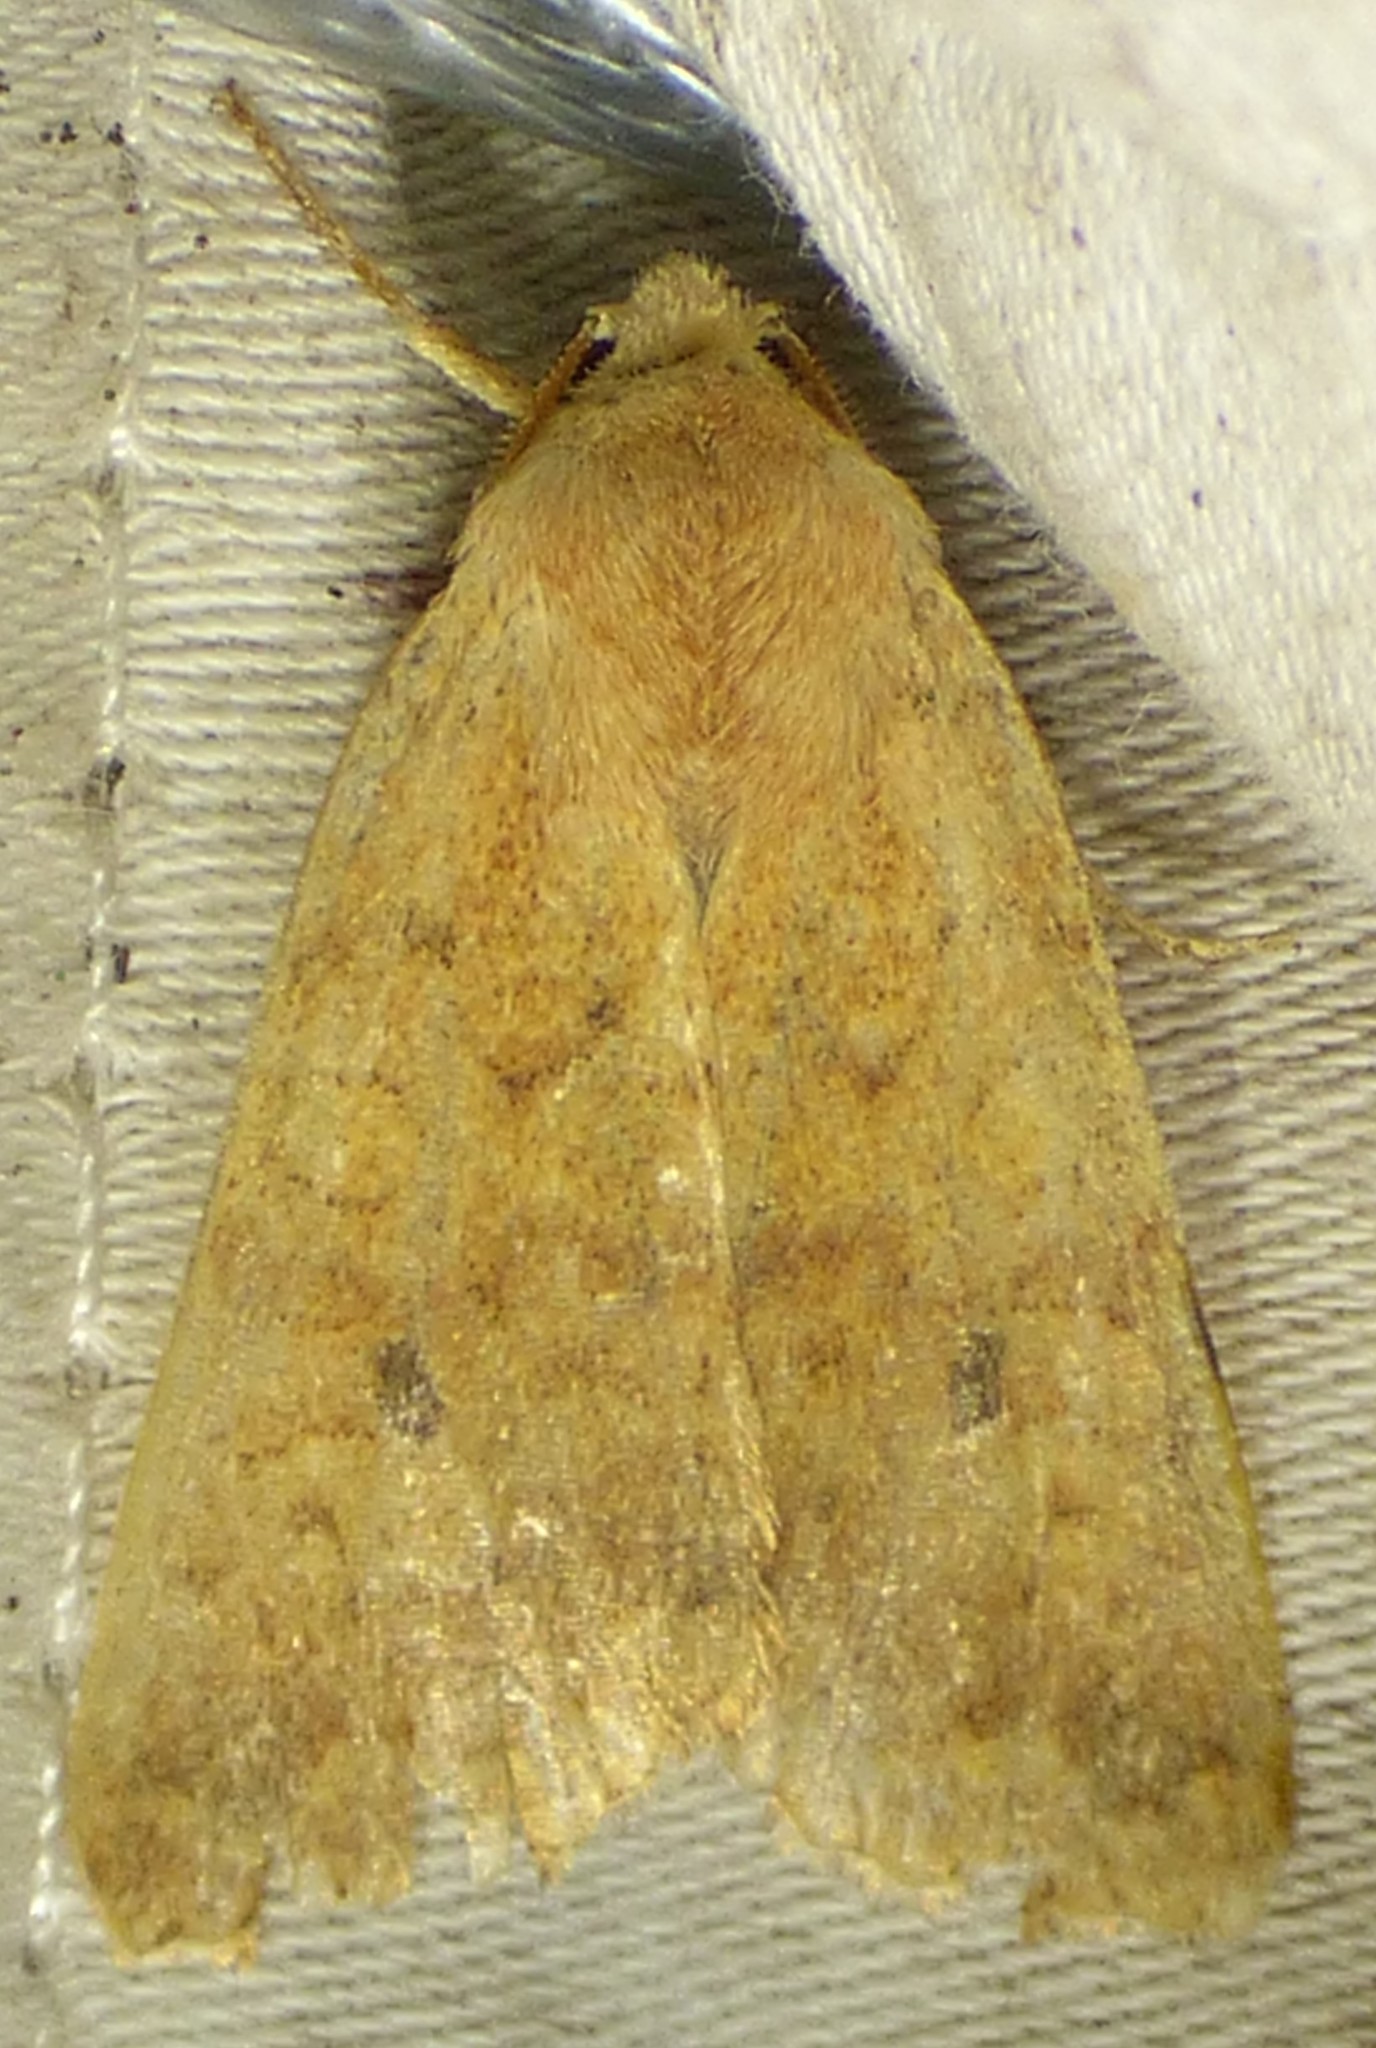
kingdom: Animalia
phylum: Arthropoda
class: Insecta
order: Lepidoptera
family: Noctuidae
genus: Agrochola
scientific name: Agrochola bicolorago
